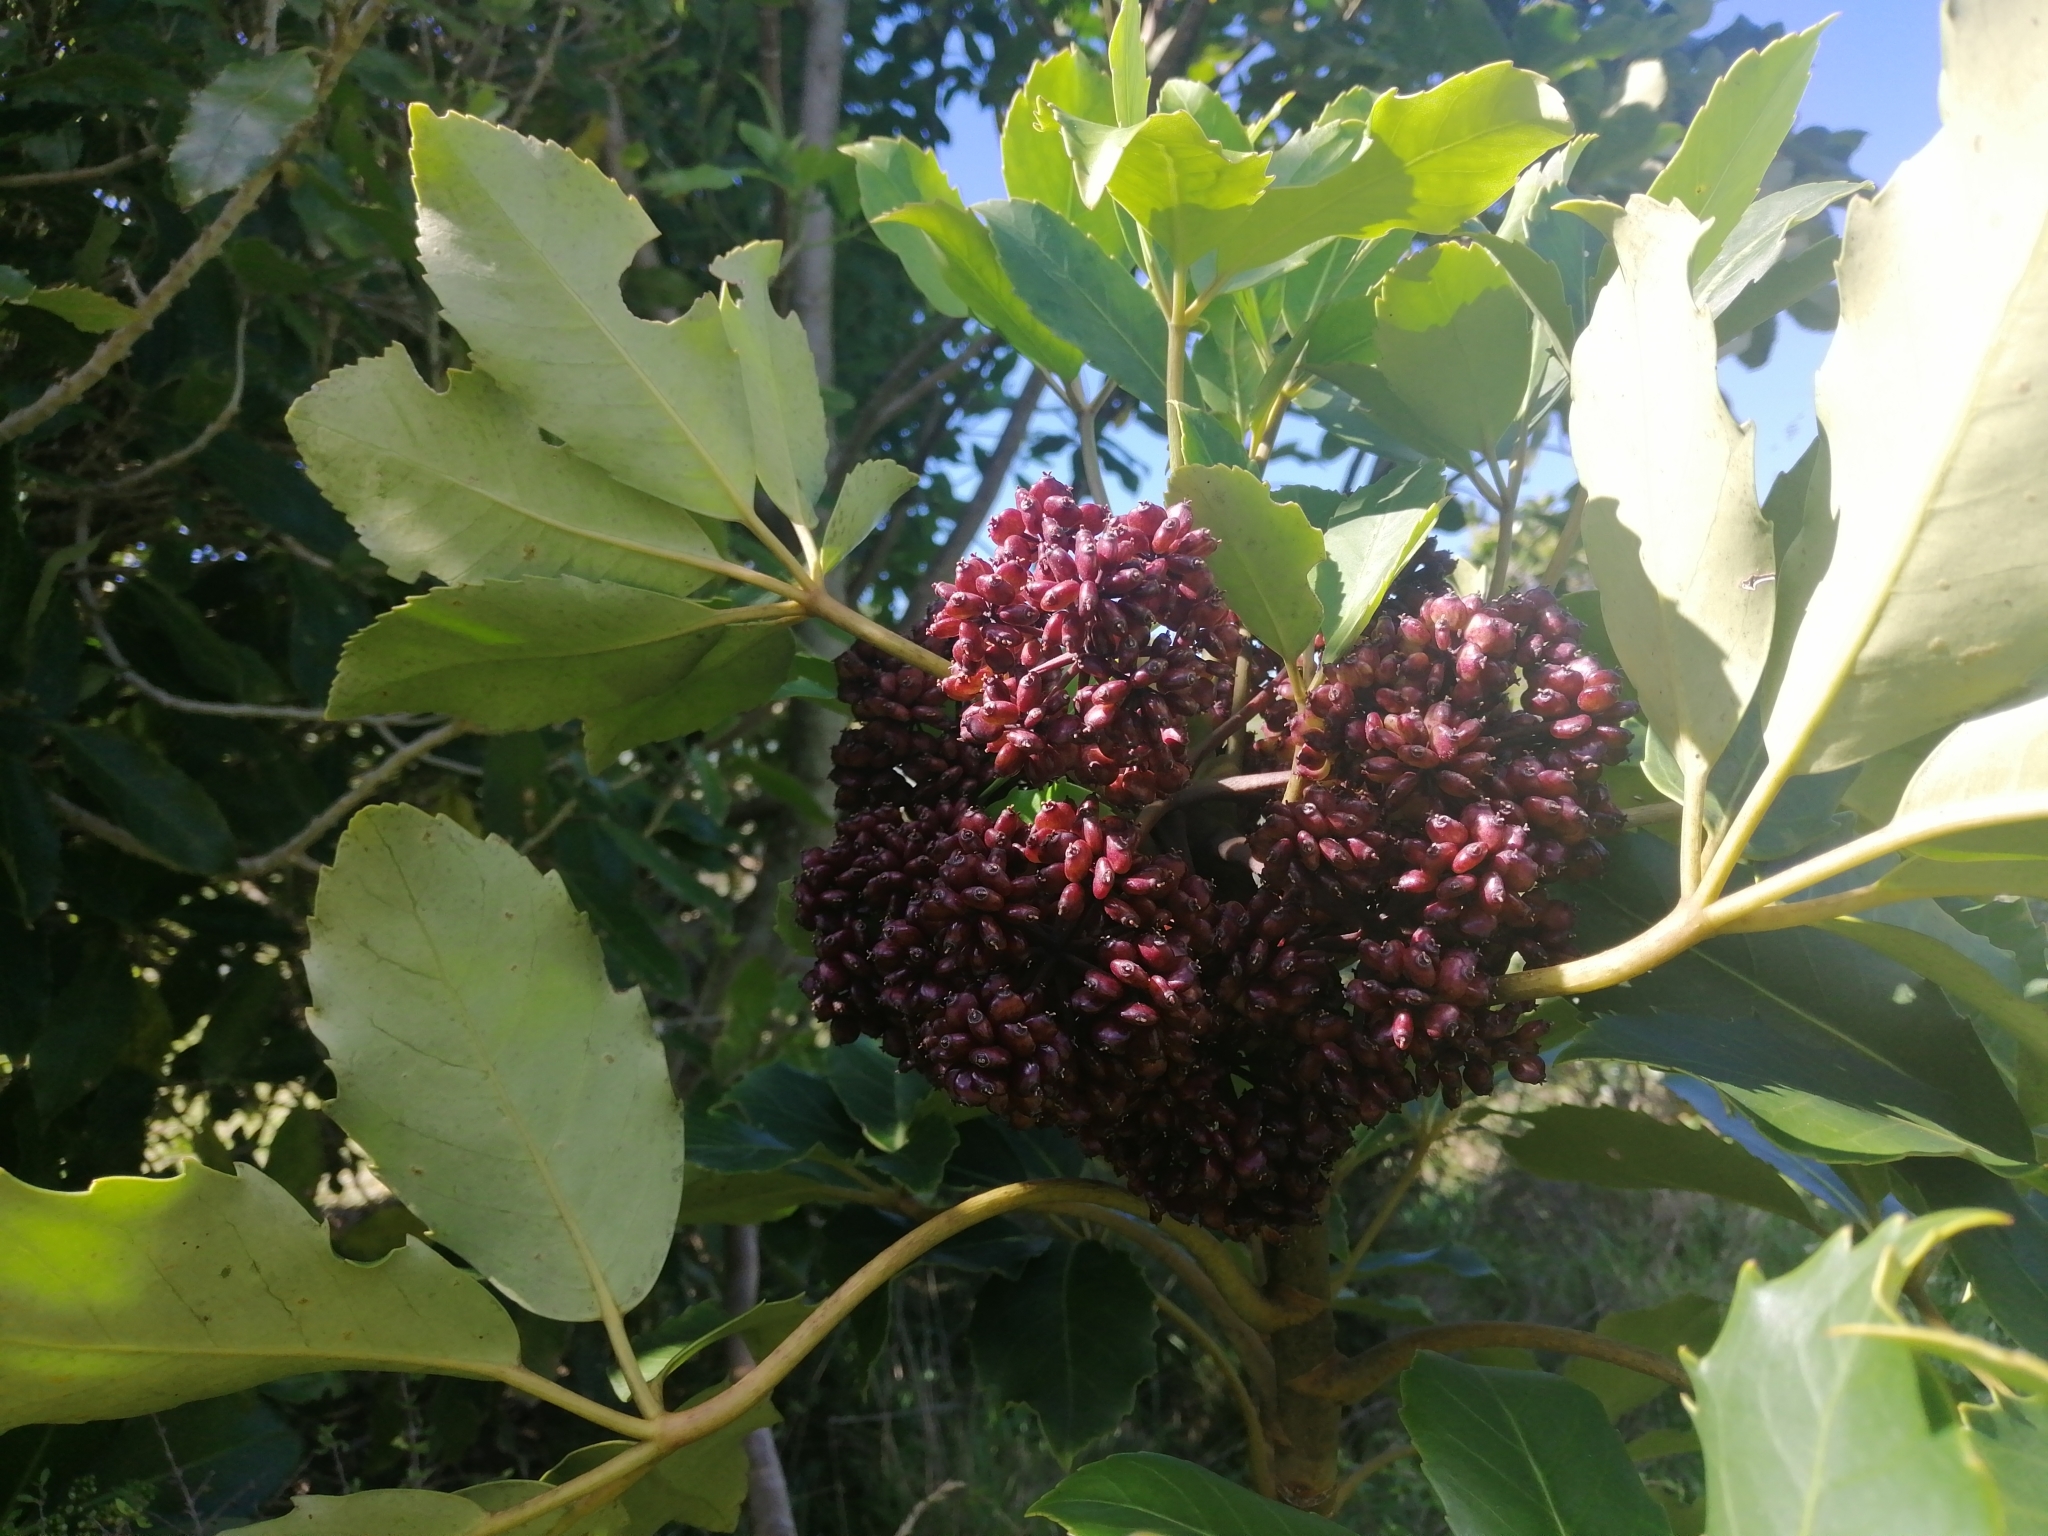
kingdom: Plantae
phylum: Tracheophyta
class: Magnoliopsida
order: Apiales
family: Araliaceae
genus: Neopanax
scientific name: Neopanax arboreus
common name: Five-fingers
